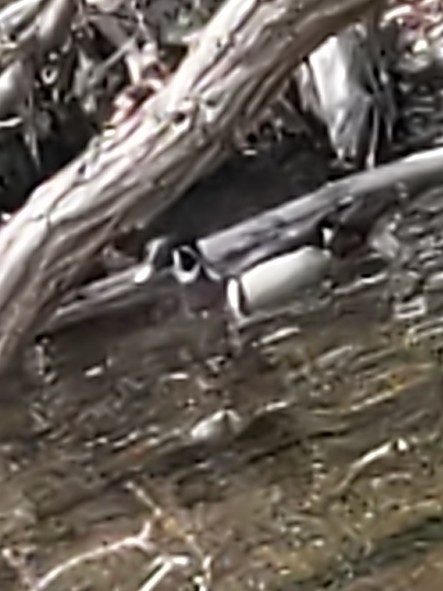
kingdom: Animalia
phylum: Chordata
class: Aves
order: Anseriformes
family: Anatidae
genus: Aix
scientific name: Aix sponsa
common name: Wood duck
